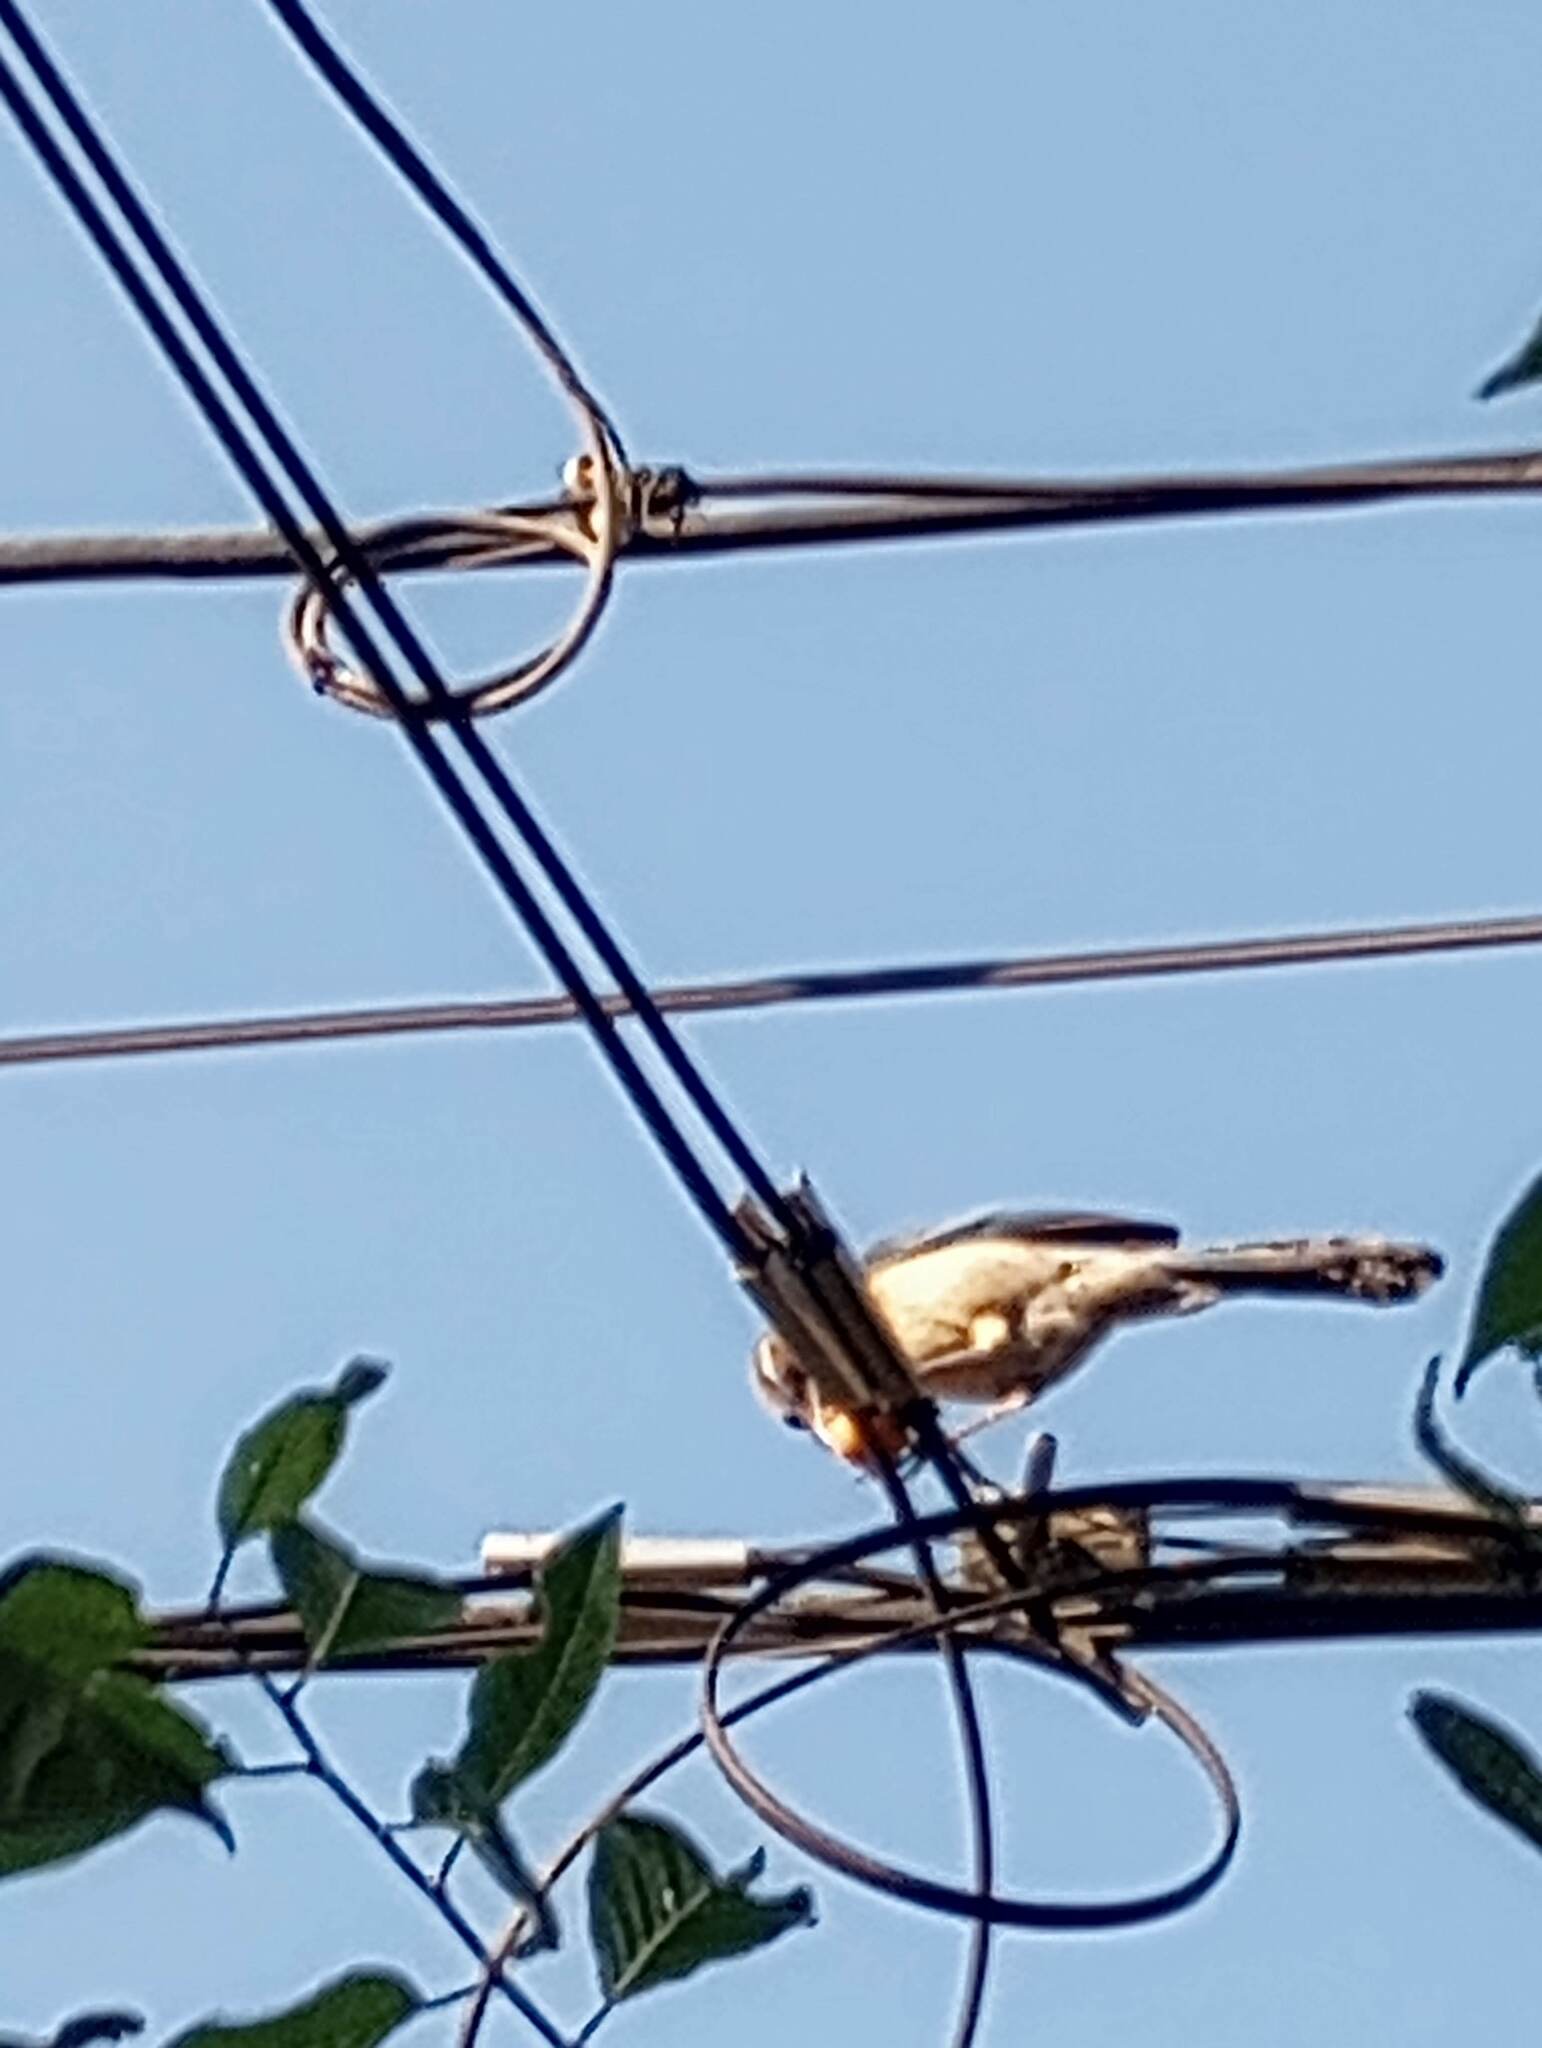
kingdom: Animalia
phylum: Chordata
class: Aves
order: Passeriformes
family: Mimidae
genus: Mimus
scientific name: Mimus polyglottos
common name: Northern mockingbird
